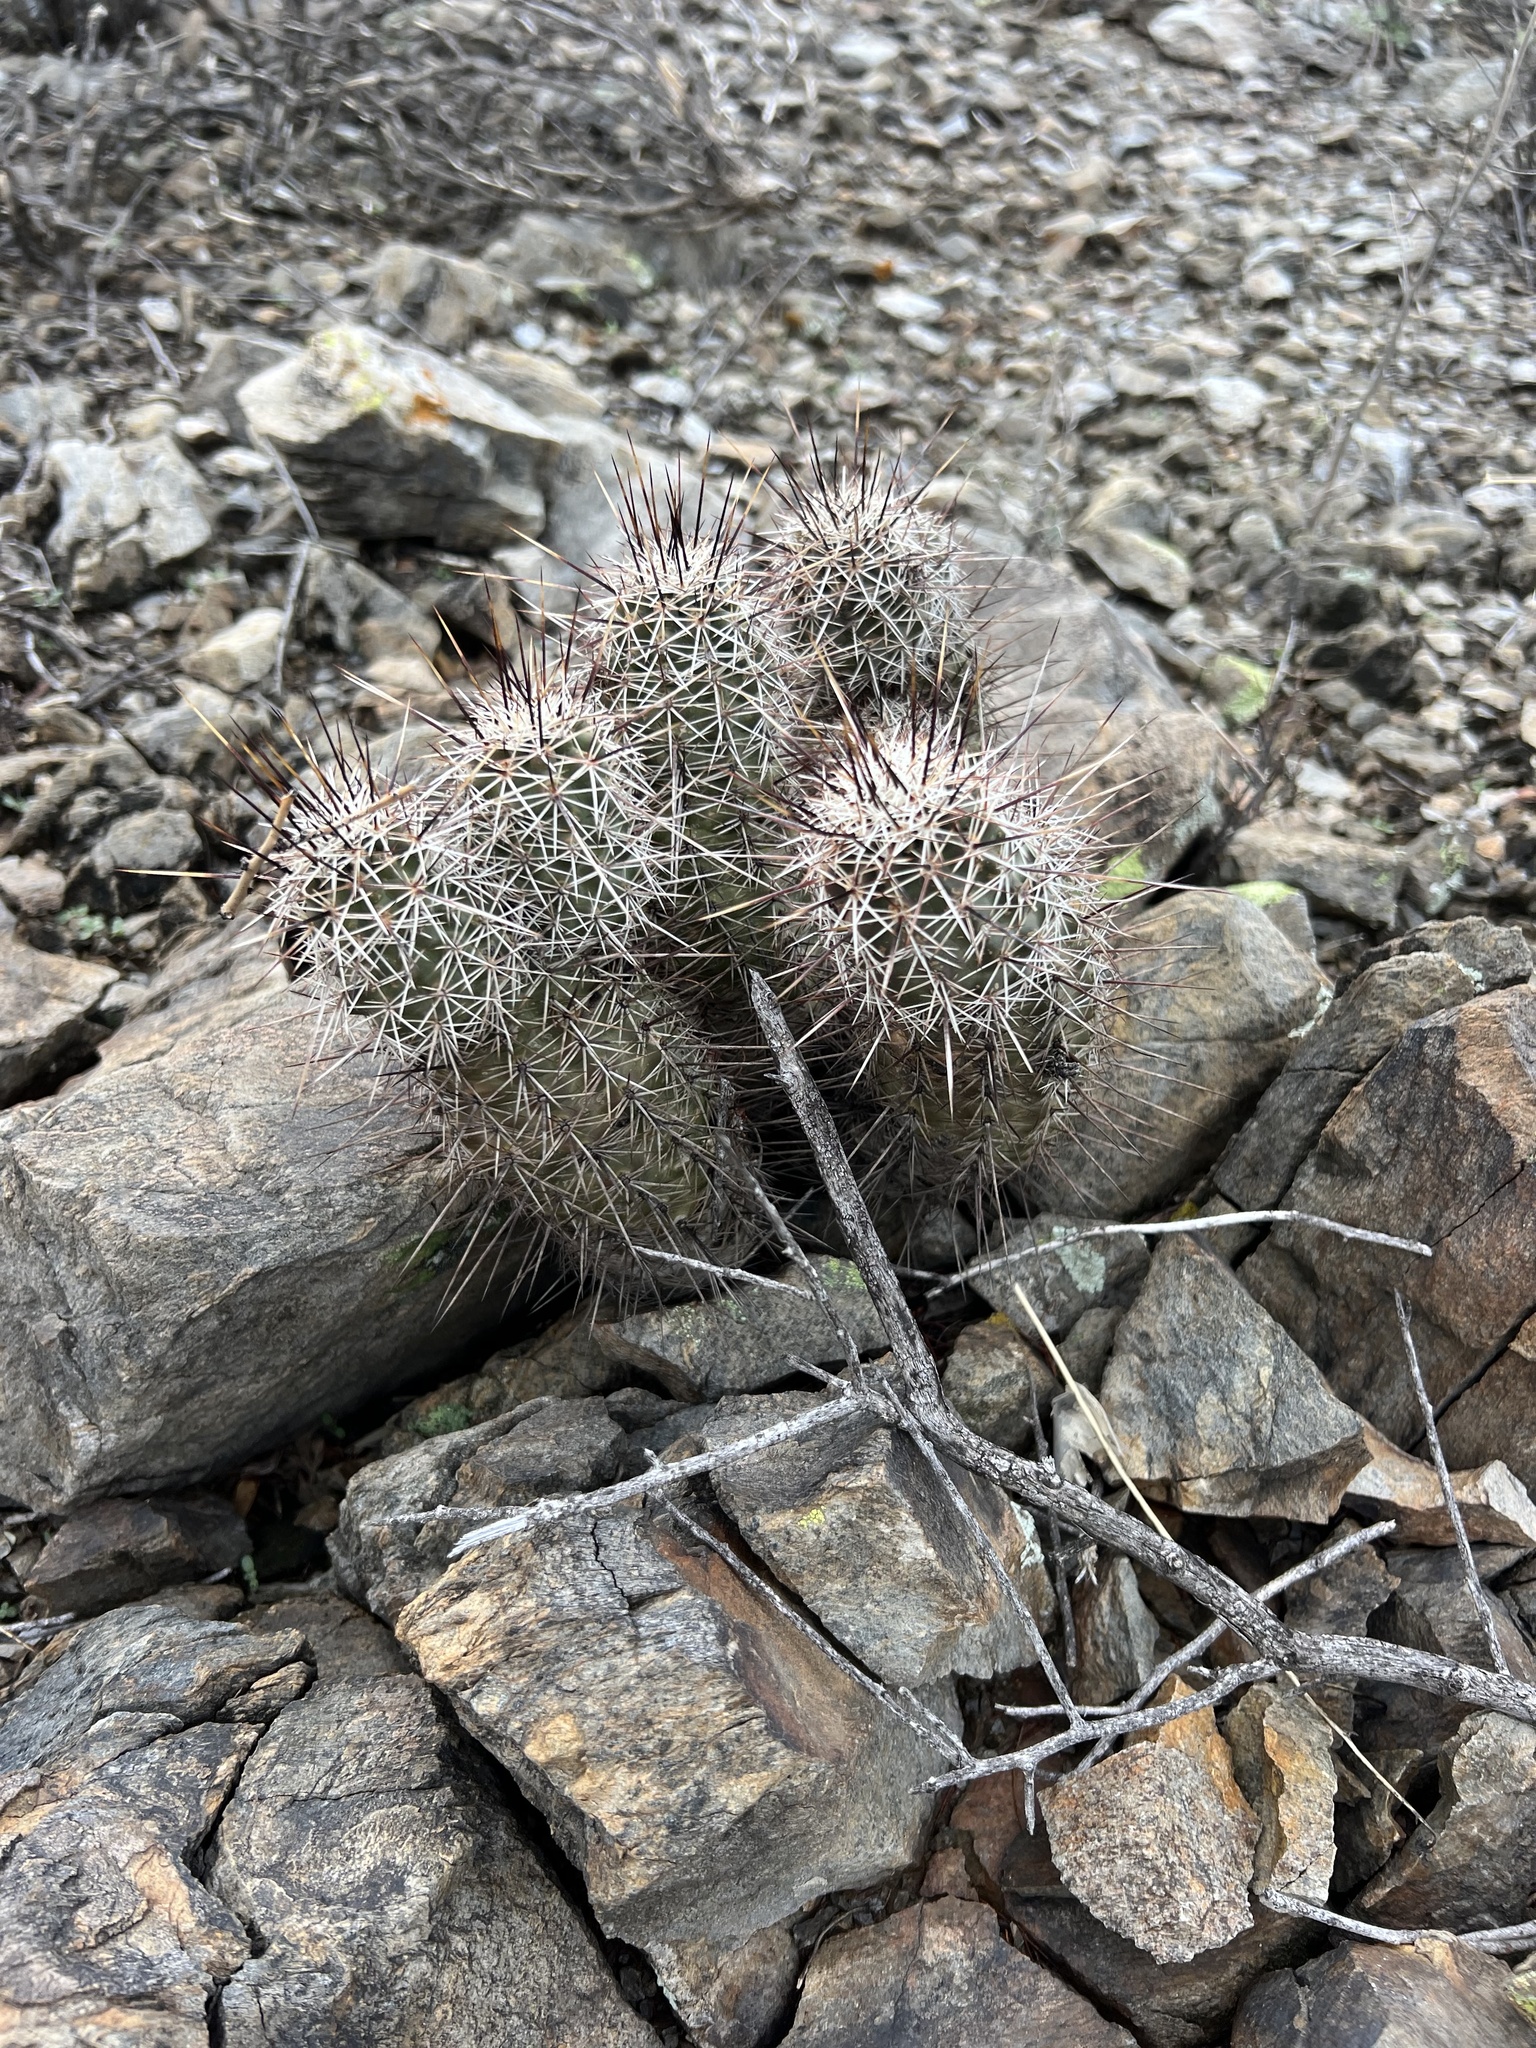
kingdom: Plantae
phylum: Tracheophyta
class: Magnoliopsida
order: Caryophyllales
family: Cactaceae
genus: Echinocereus
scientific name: Echinocereus fasciculatus
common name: Bundle hedgehog
